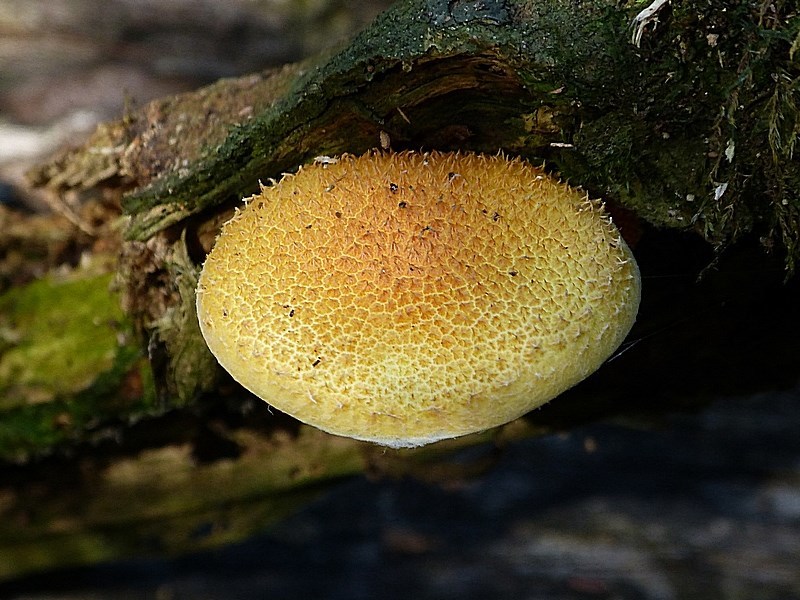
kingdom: Fungi
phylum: Basidiomycota
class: Agaricomycetes
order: Agaricales
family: Physalacriaceae
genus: Cyptotrama
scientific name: Cyptotrama asprata
